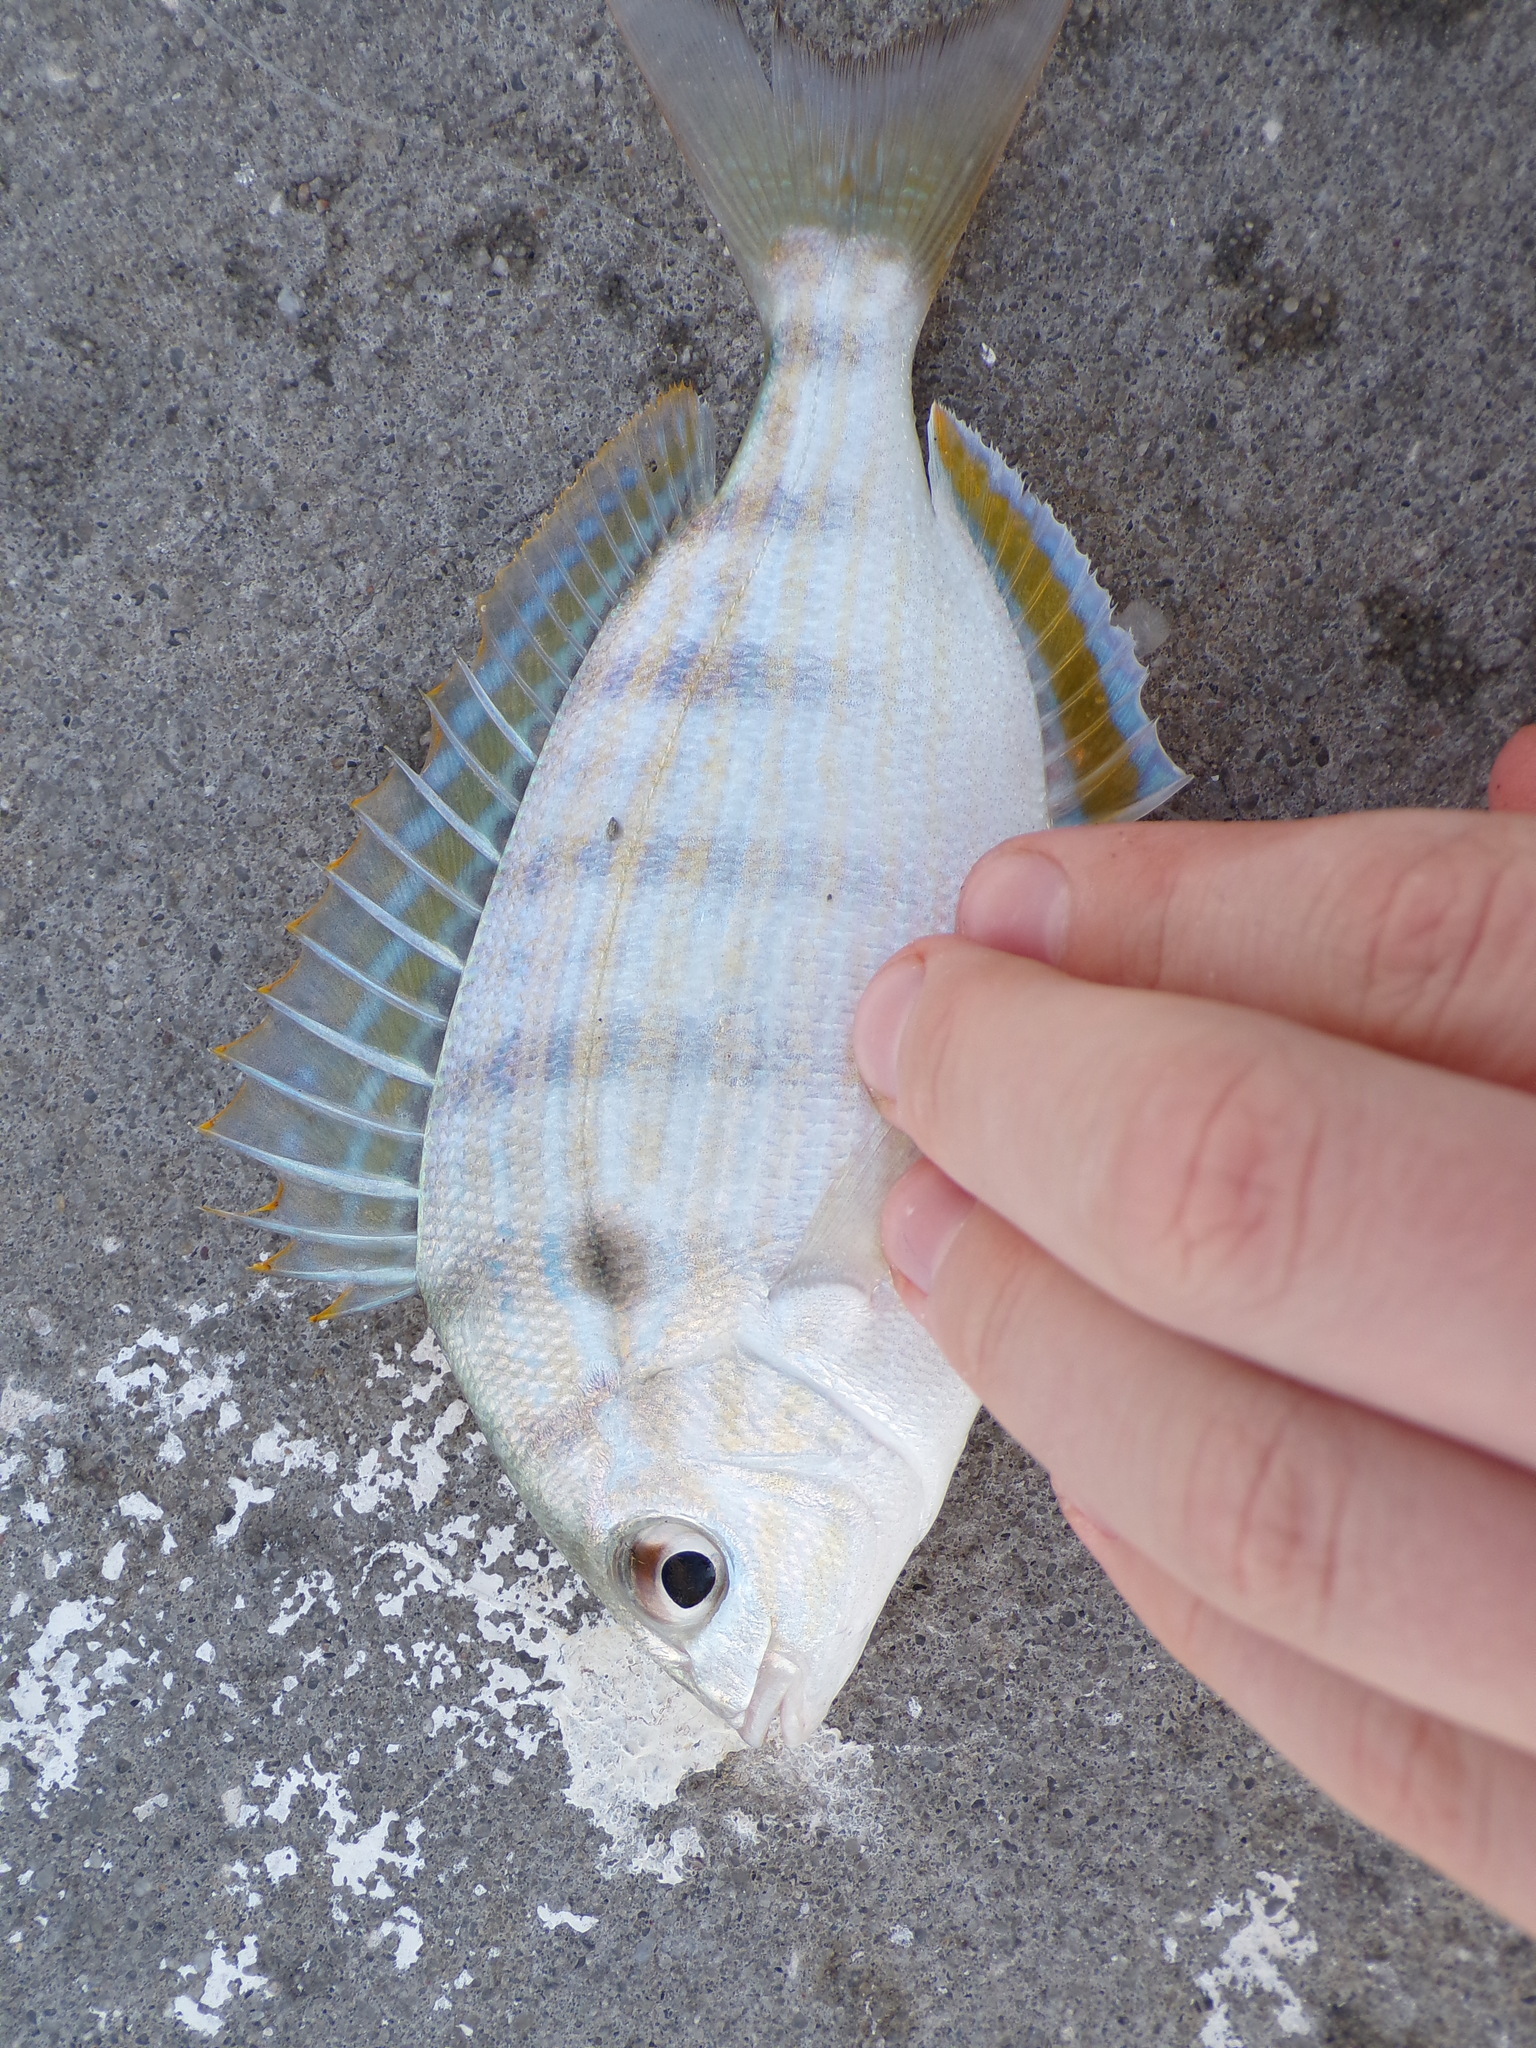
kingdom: Animalia
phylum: Chordata
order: Perciformes
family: Sparidae
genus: Lagodon
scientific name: Lagodon rhomboides
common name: Pinfish
